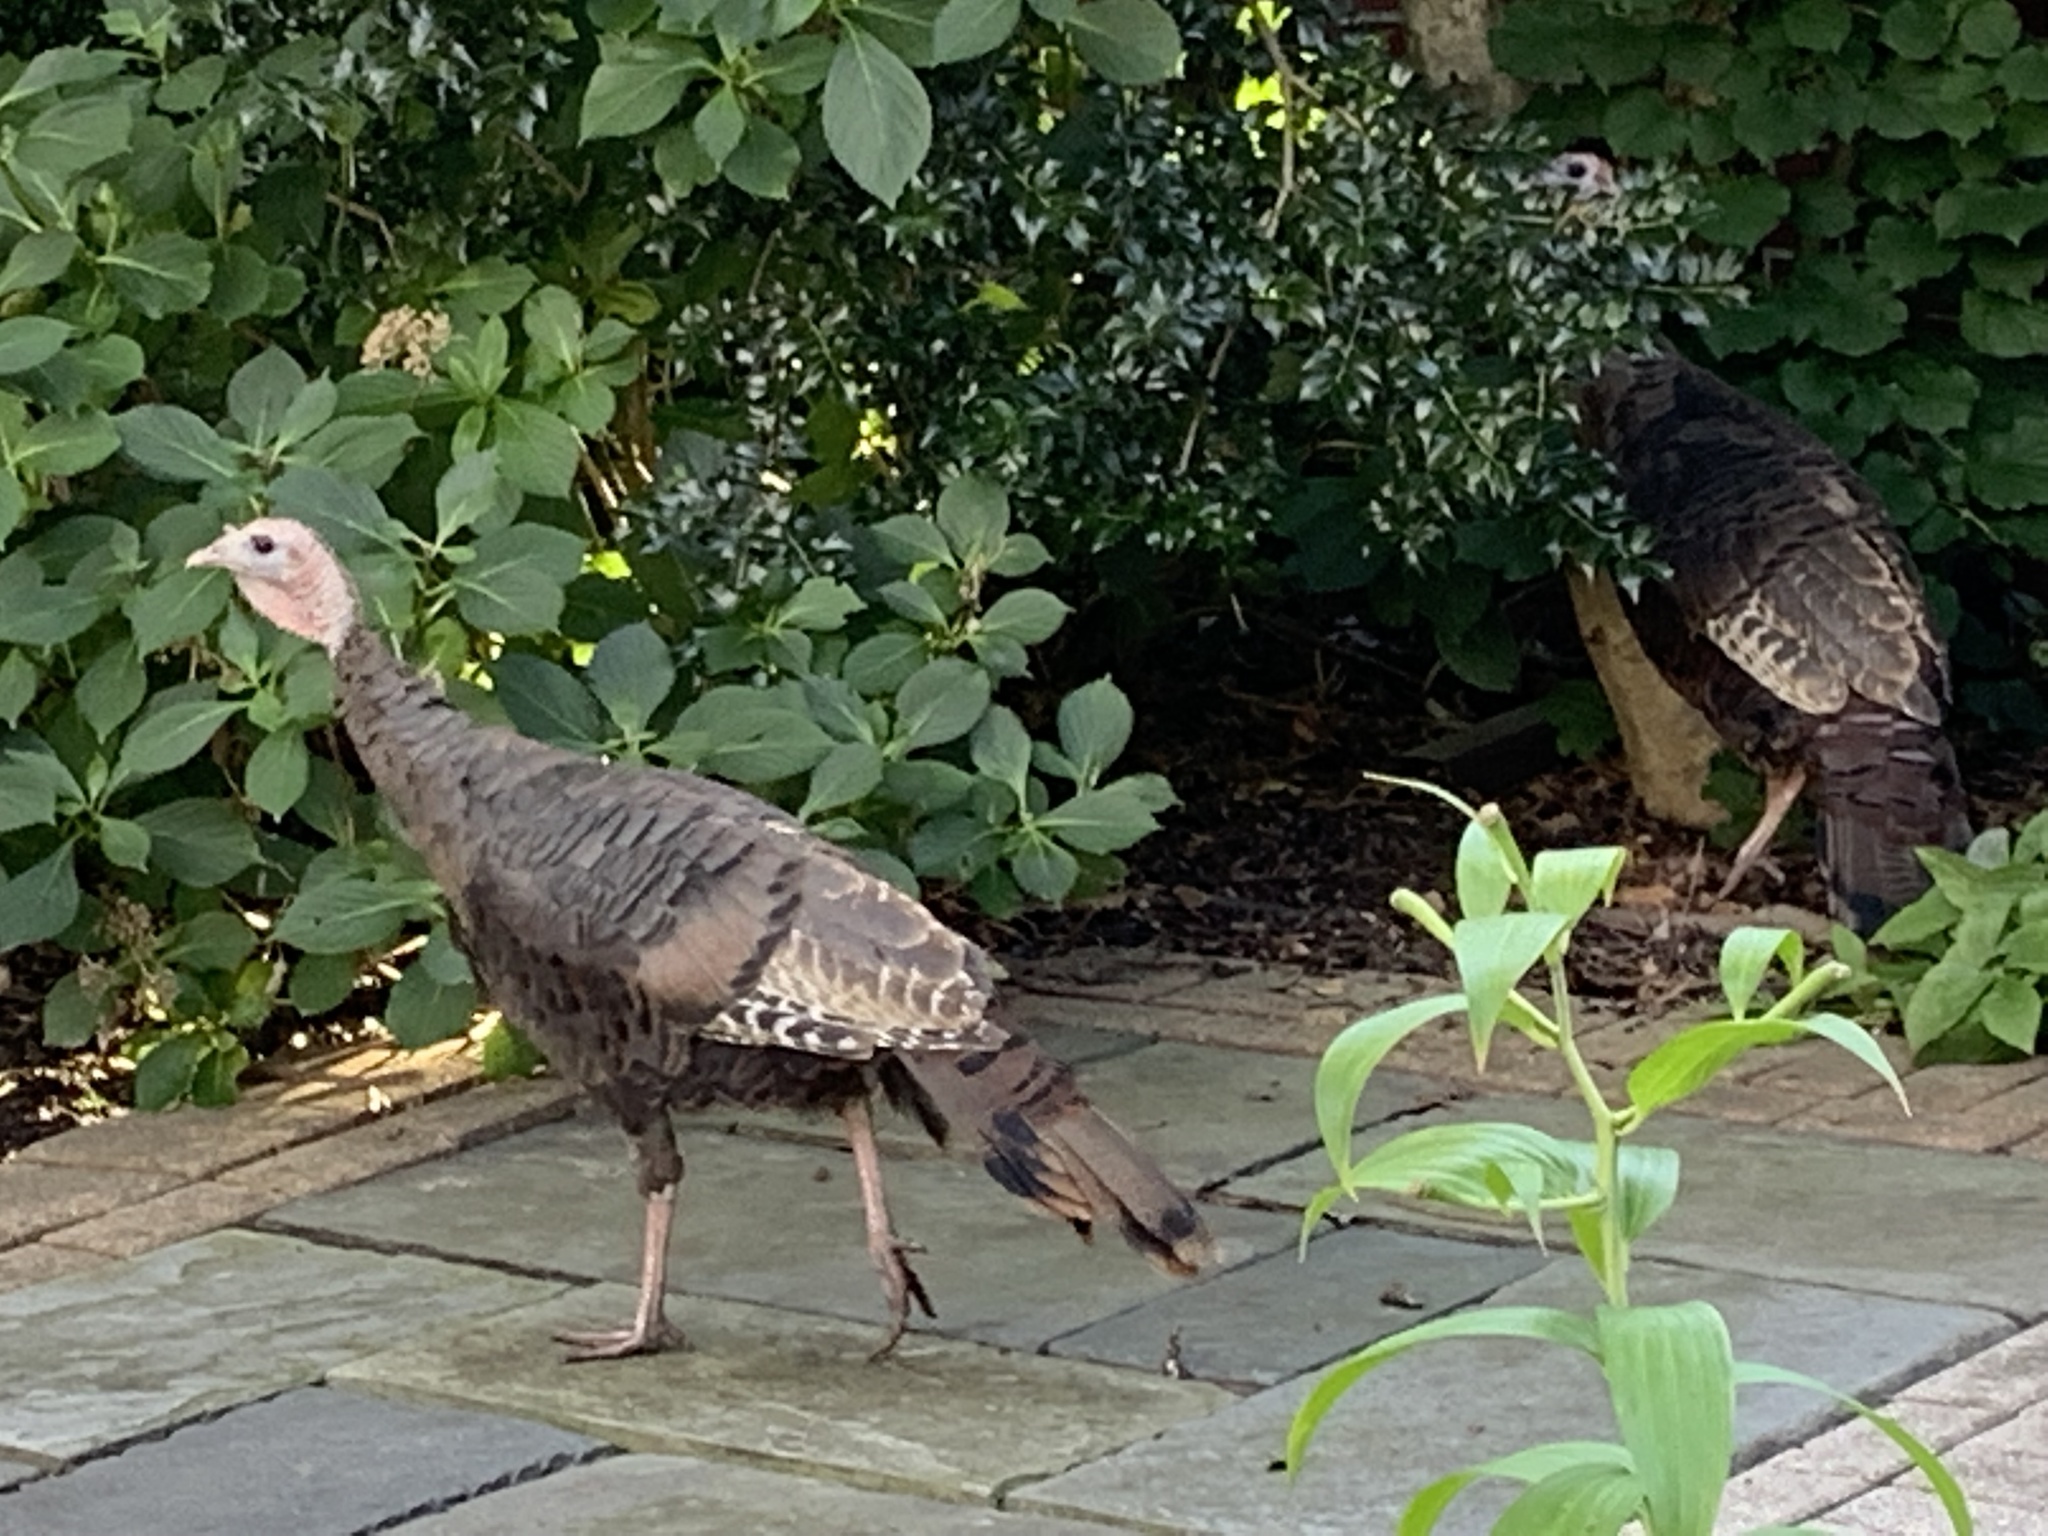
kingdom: Animalia
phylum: Chordata
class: Aves
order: Galliformes
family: Phasianidae
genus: Meleagris
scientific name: Meleagris gallopavo
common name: Wild turkey
